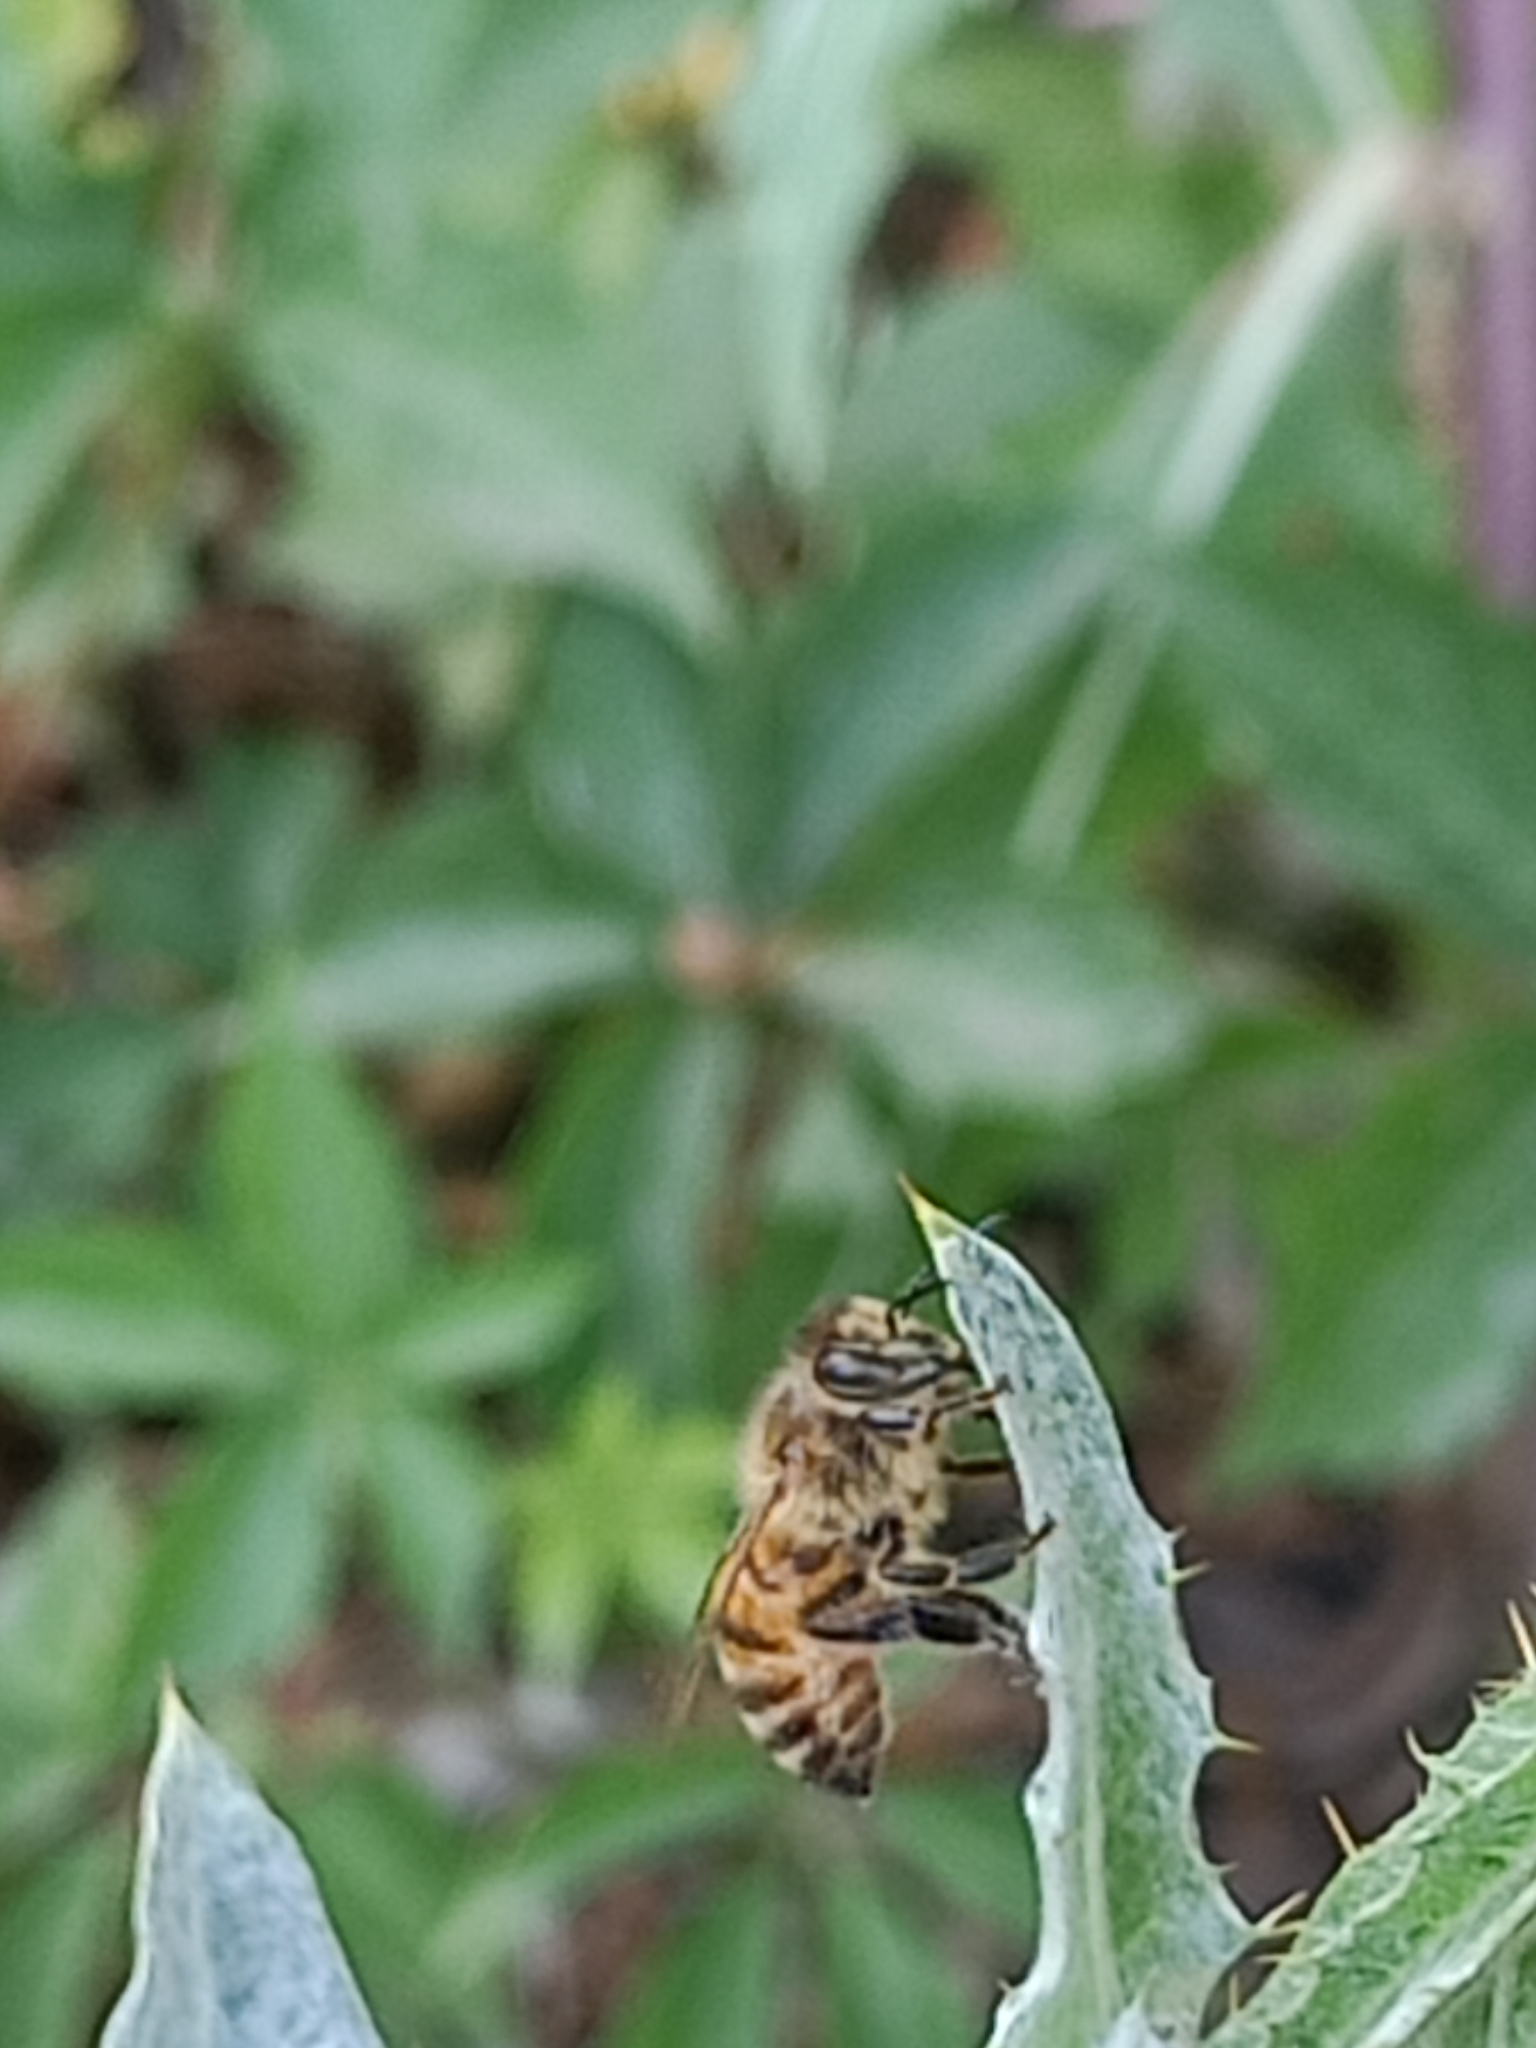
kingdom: Animalia
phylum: Arthropoda
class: Insecta
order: Hymenoptera
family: Apidae
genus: Apis
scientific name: Apis mellifera
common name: Honey bee
